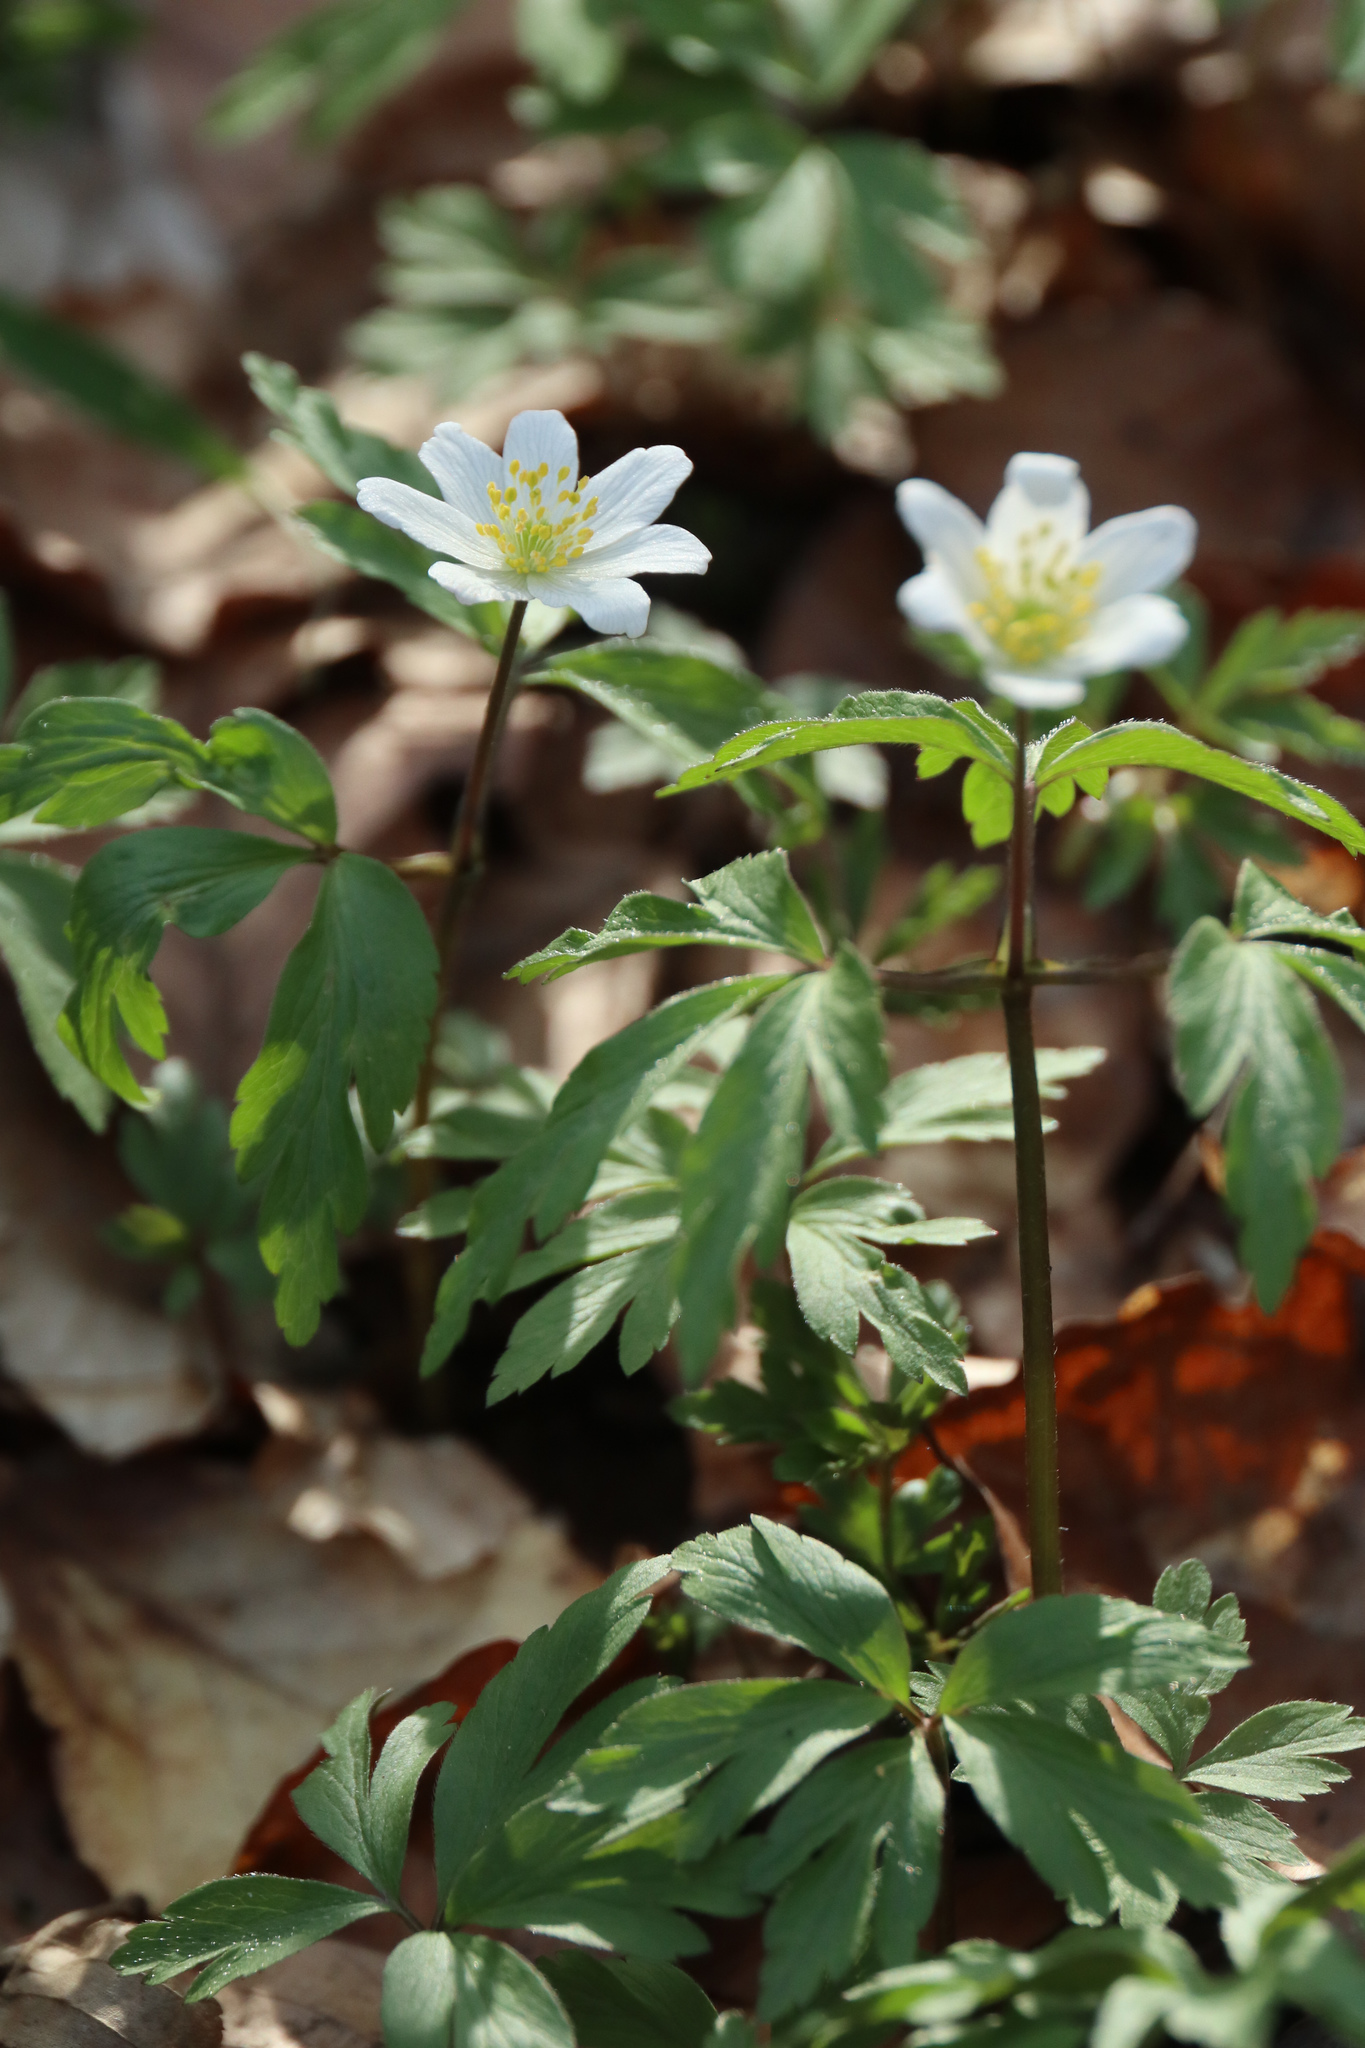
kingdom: Plantae
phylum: Tracheophyta
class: Magnoliopsida
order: Ranunculales
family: Ranunculaceae
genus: Anemone
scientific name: Anemone nemorosa
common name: Wood anemone
